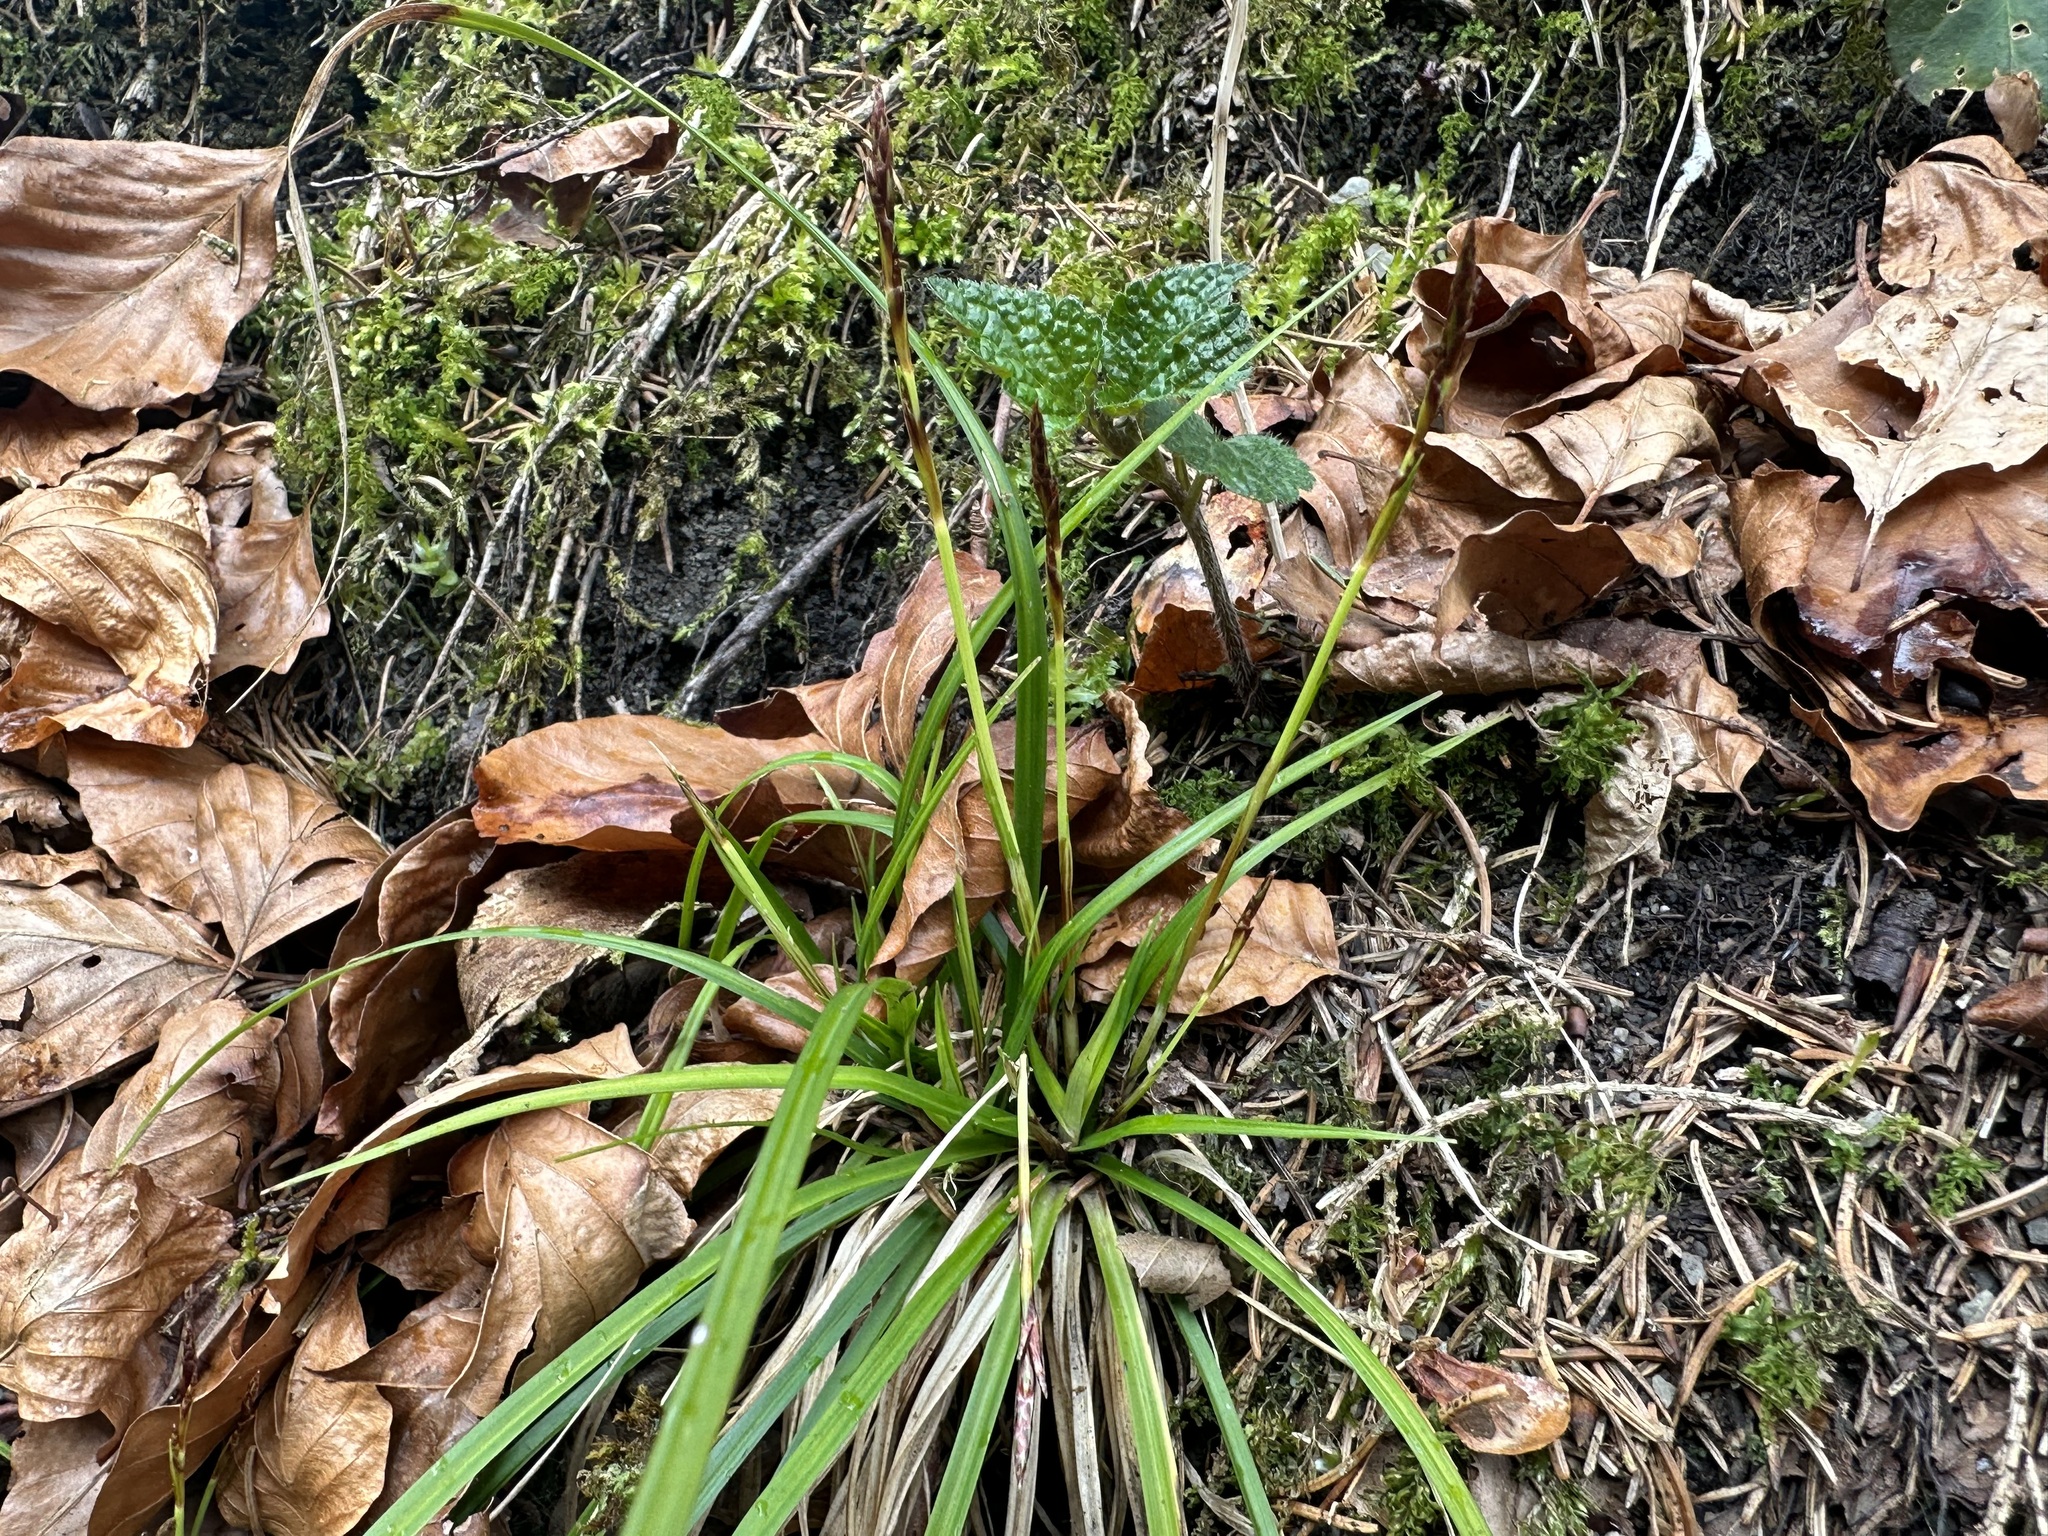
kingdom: Plantae
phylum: Tracheophyta
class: Liliopsida
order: Poales
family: Cyperaceae
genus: Carex
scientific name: Carex digitata
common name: Fingered sedge
